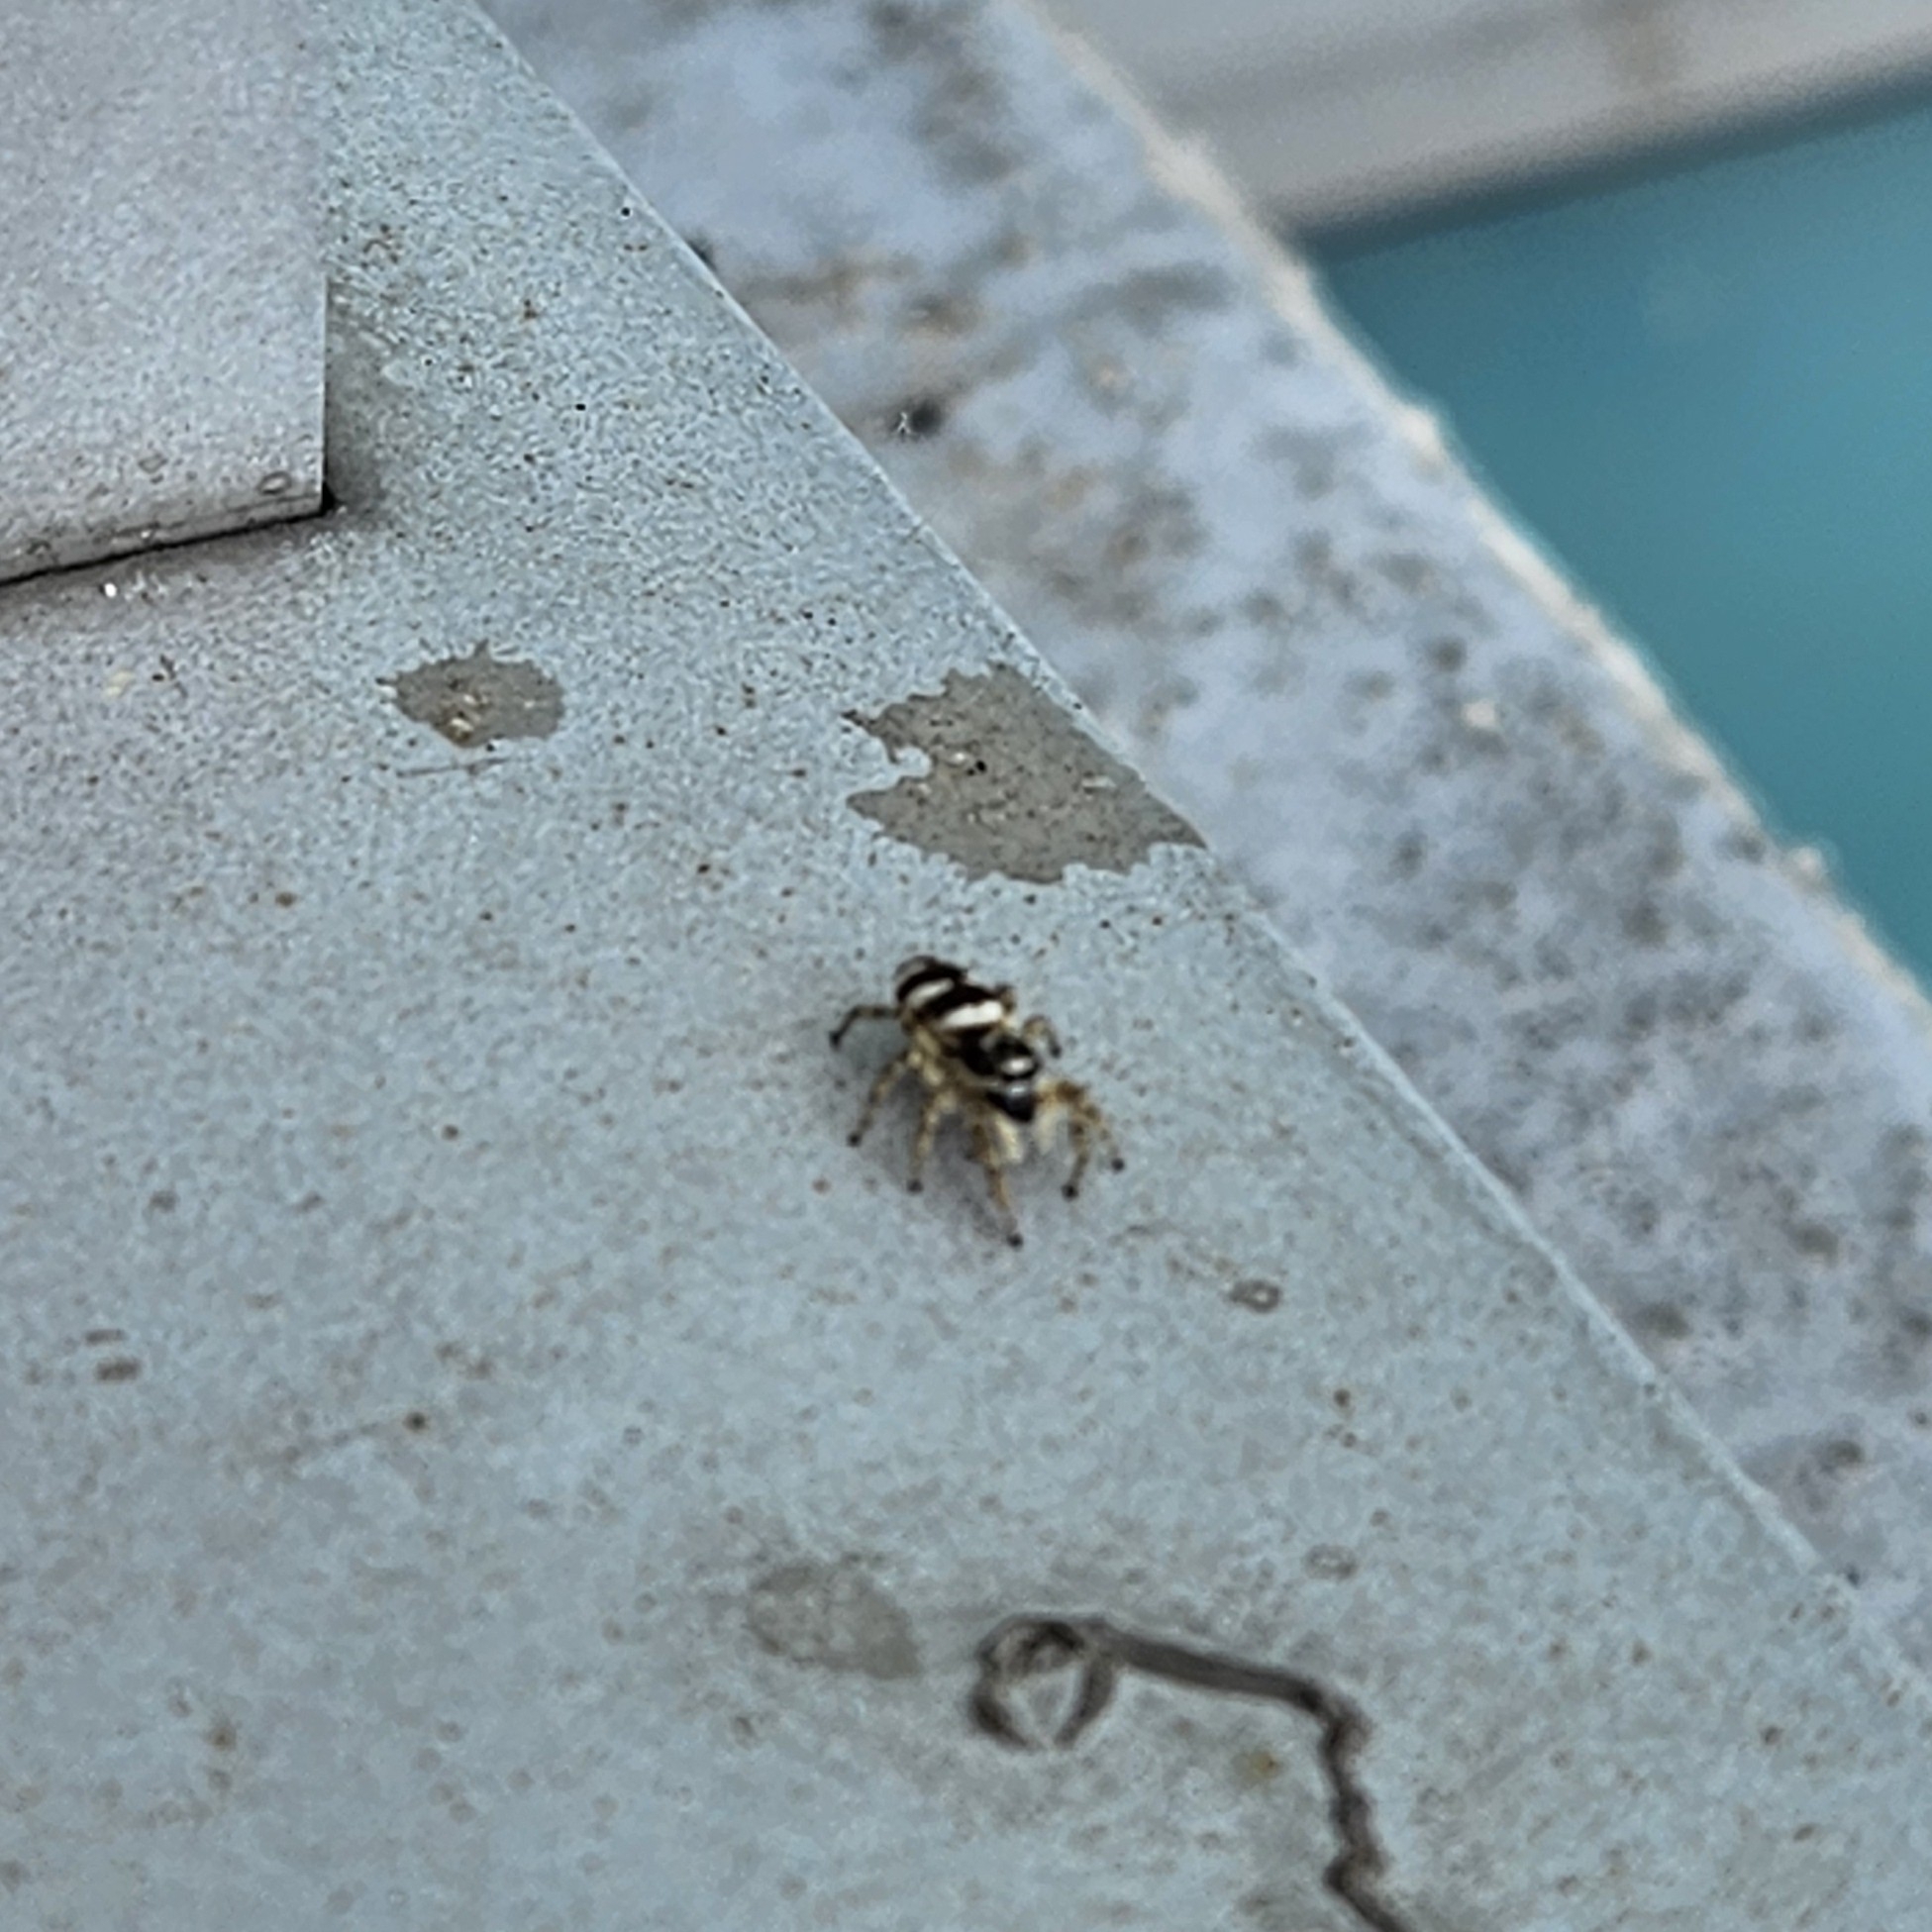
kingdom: Animalia
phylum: Arthropoda
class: Arachnida
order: Araneae
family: Salticidae
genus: Salticus
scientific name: Salticus scenicus
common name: Zebra jumper
